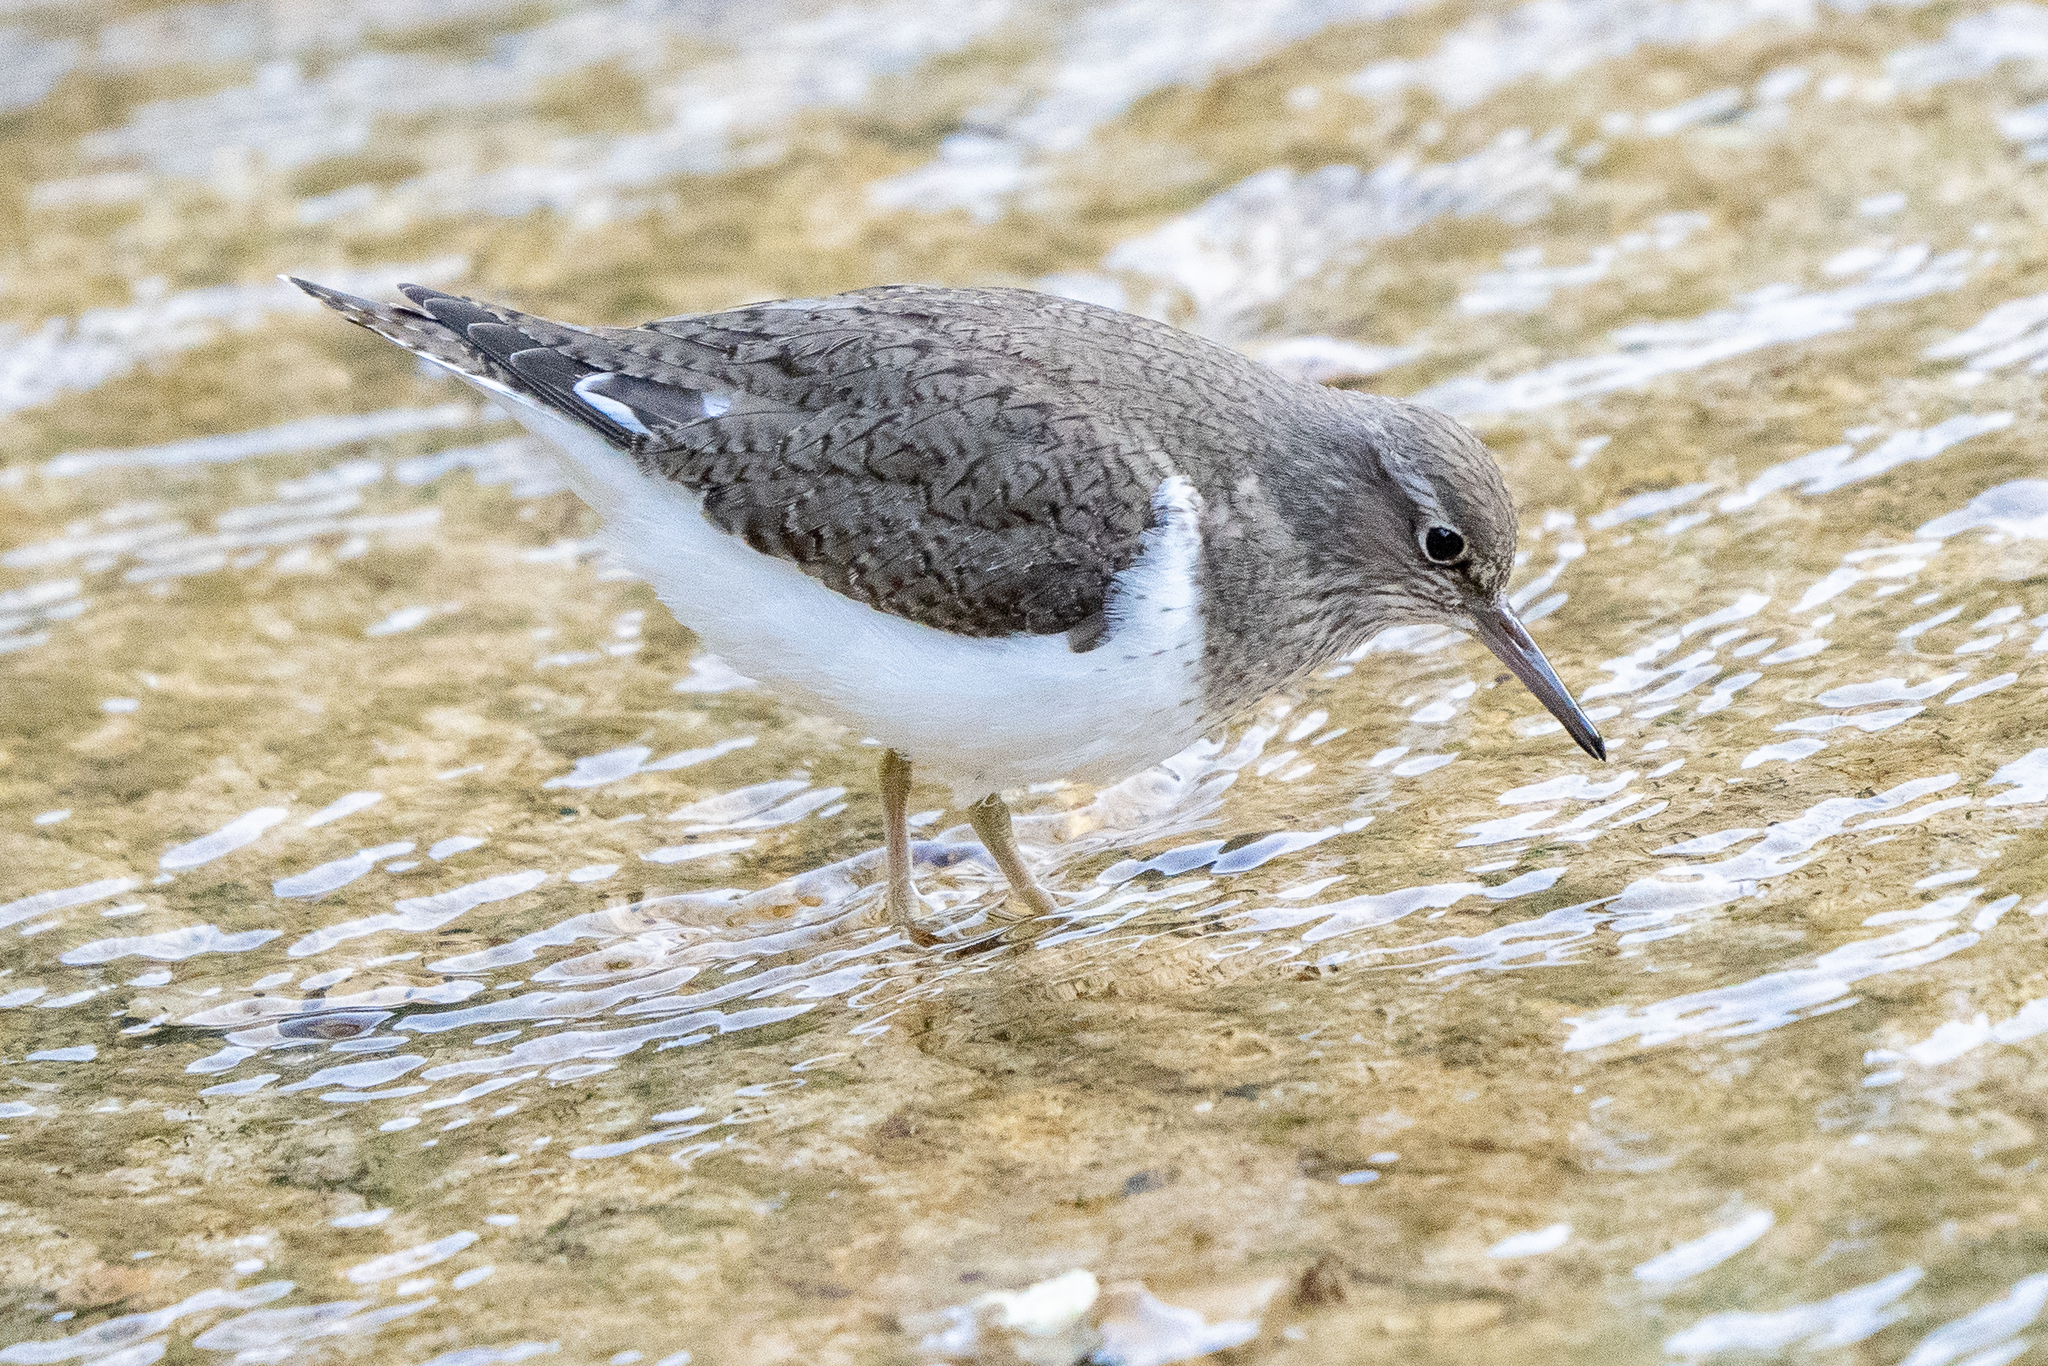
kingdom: Animalia
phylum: Chordata
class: Aves
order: Charadriiformes
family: Scolopacidae
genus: Actitis
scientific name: Actitis hypoleucos
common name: Common sandpiper
